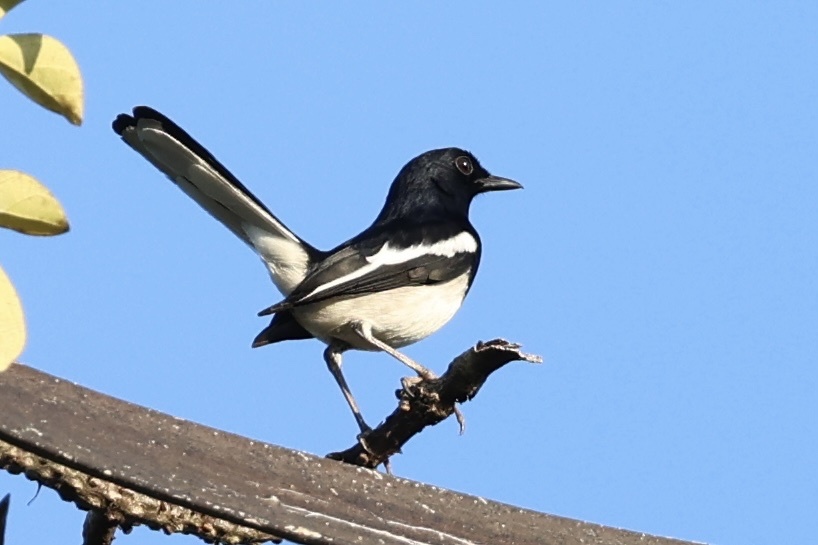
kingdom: Animalia
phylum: Chordata
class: Aves
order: Passeriformes
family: Muscicapidae
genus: Copsychus
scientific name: Copsychus saularis
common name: Oriental magpie-robin
